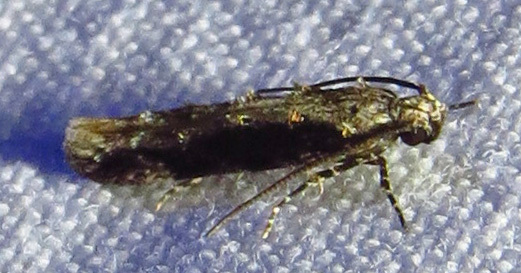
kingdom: Animalia
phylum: Arthropoda
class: Insecta
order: Lepidoptera
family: Gelechiidae
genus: Coleotechnites
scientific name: Coleotechnites florae
